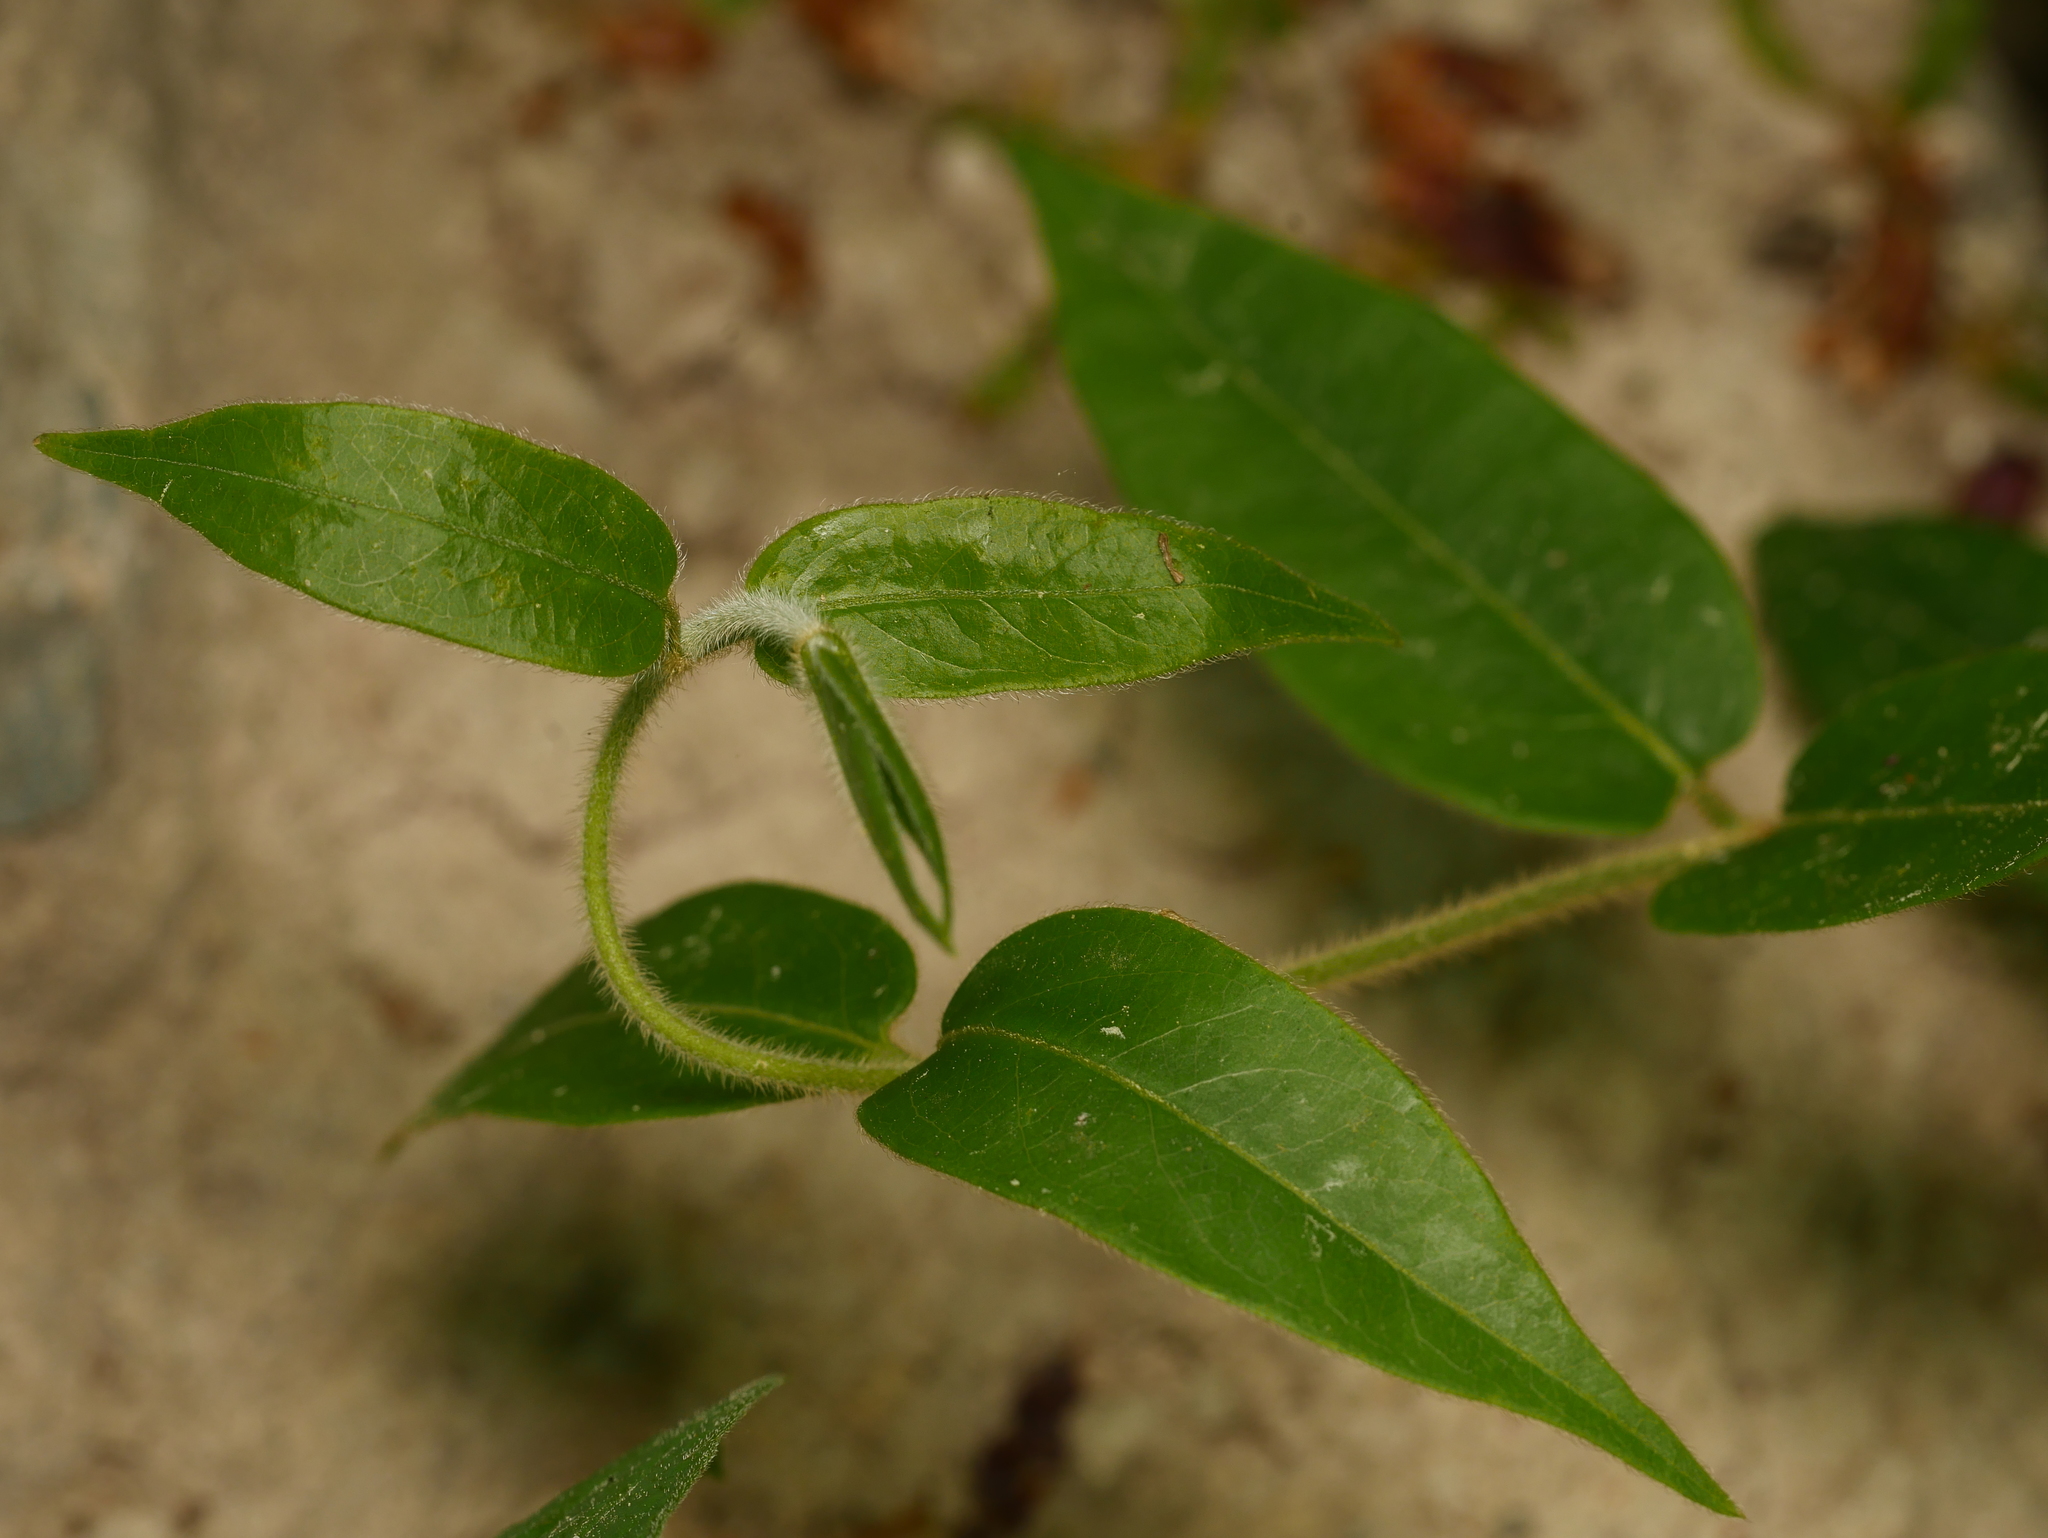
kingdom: Plantae
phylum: Tracheophyta
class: Magnoliopsida
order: Dipsacales
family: Caprifoliaceae
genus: Lonicera
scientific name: Lonicera acuminata
